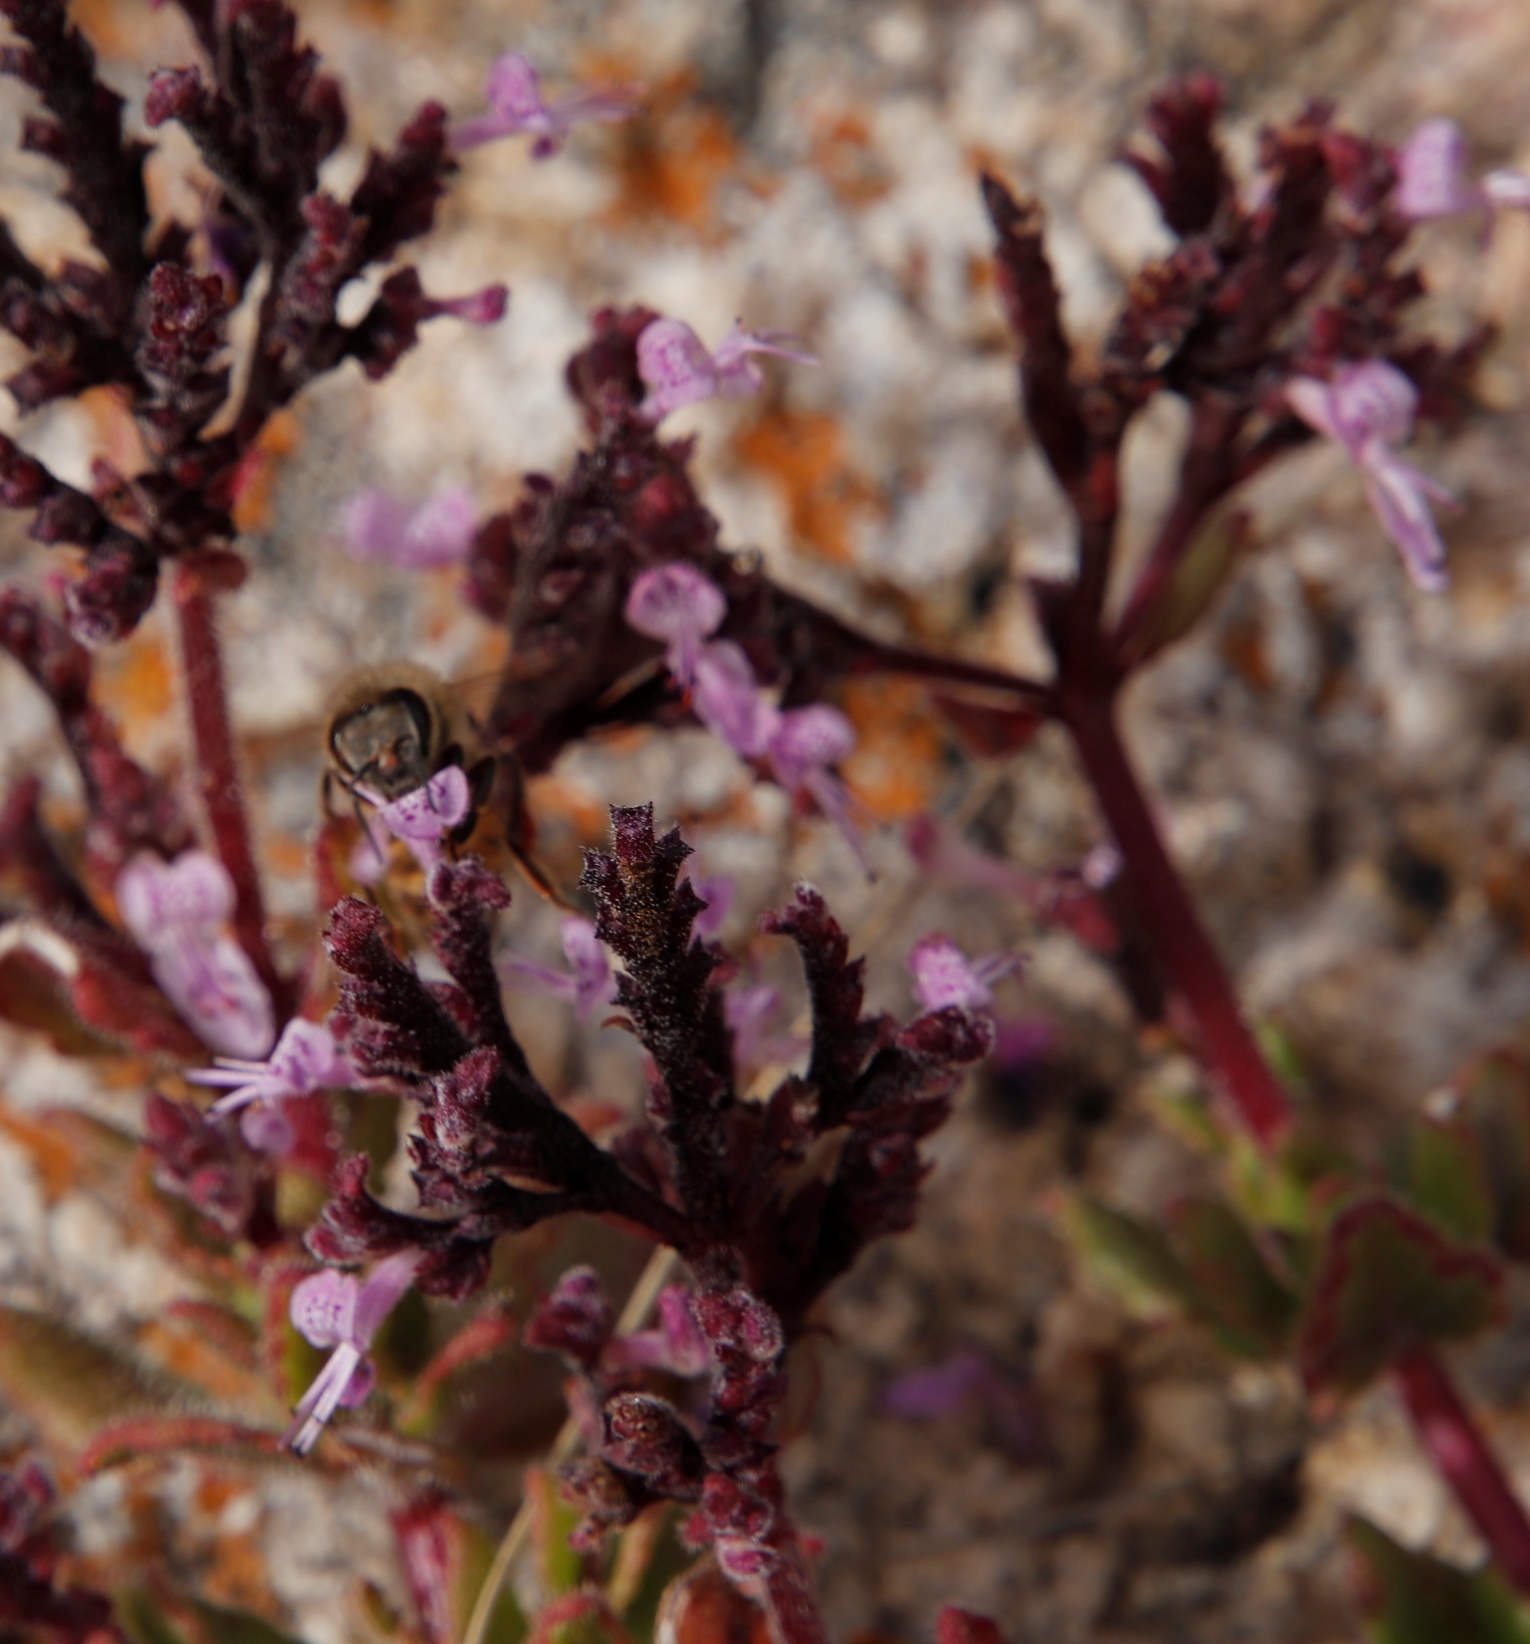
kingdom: Plantae
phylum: Tracheophyta
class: Magnoliopsida
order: Lamiales
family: Lamiaceae
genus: Aeollanthus
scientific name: Aeollanthus serpiculoides
